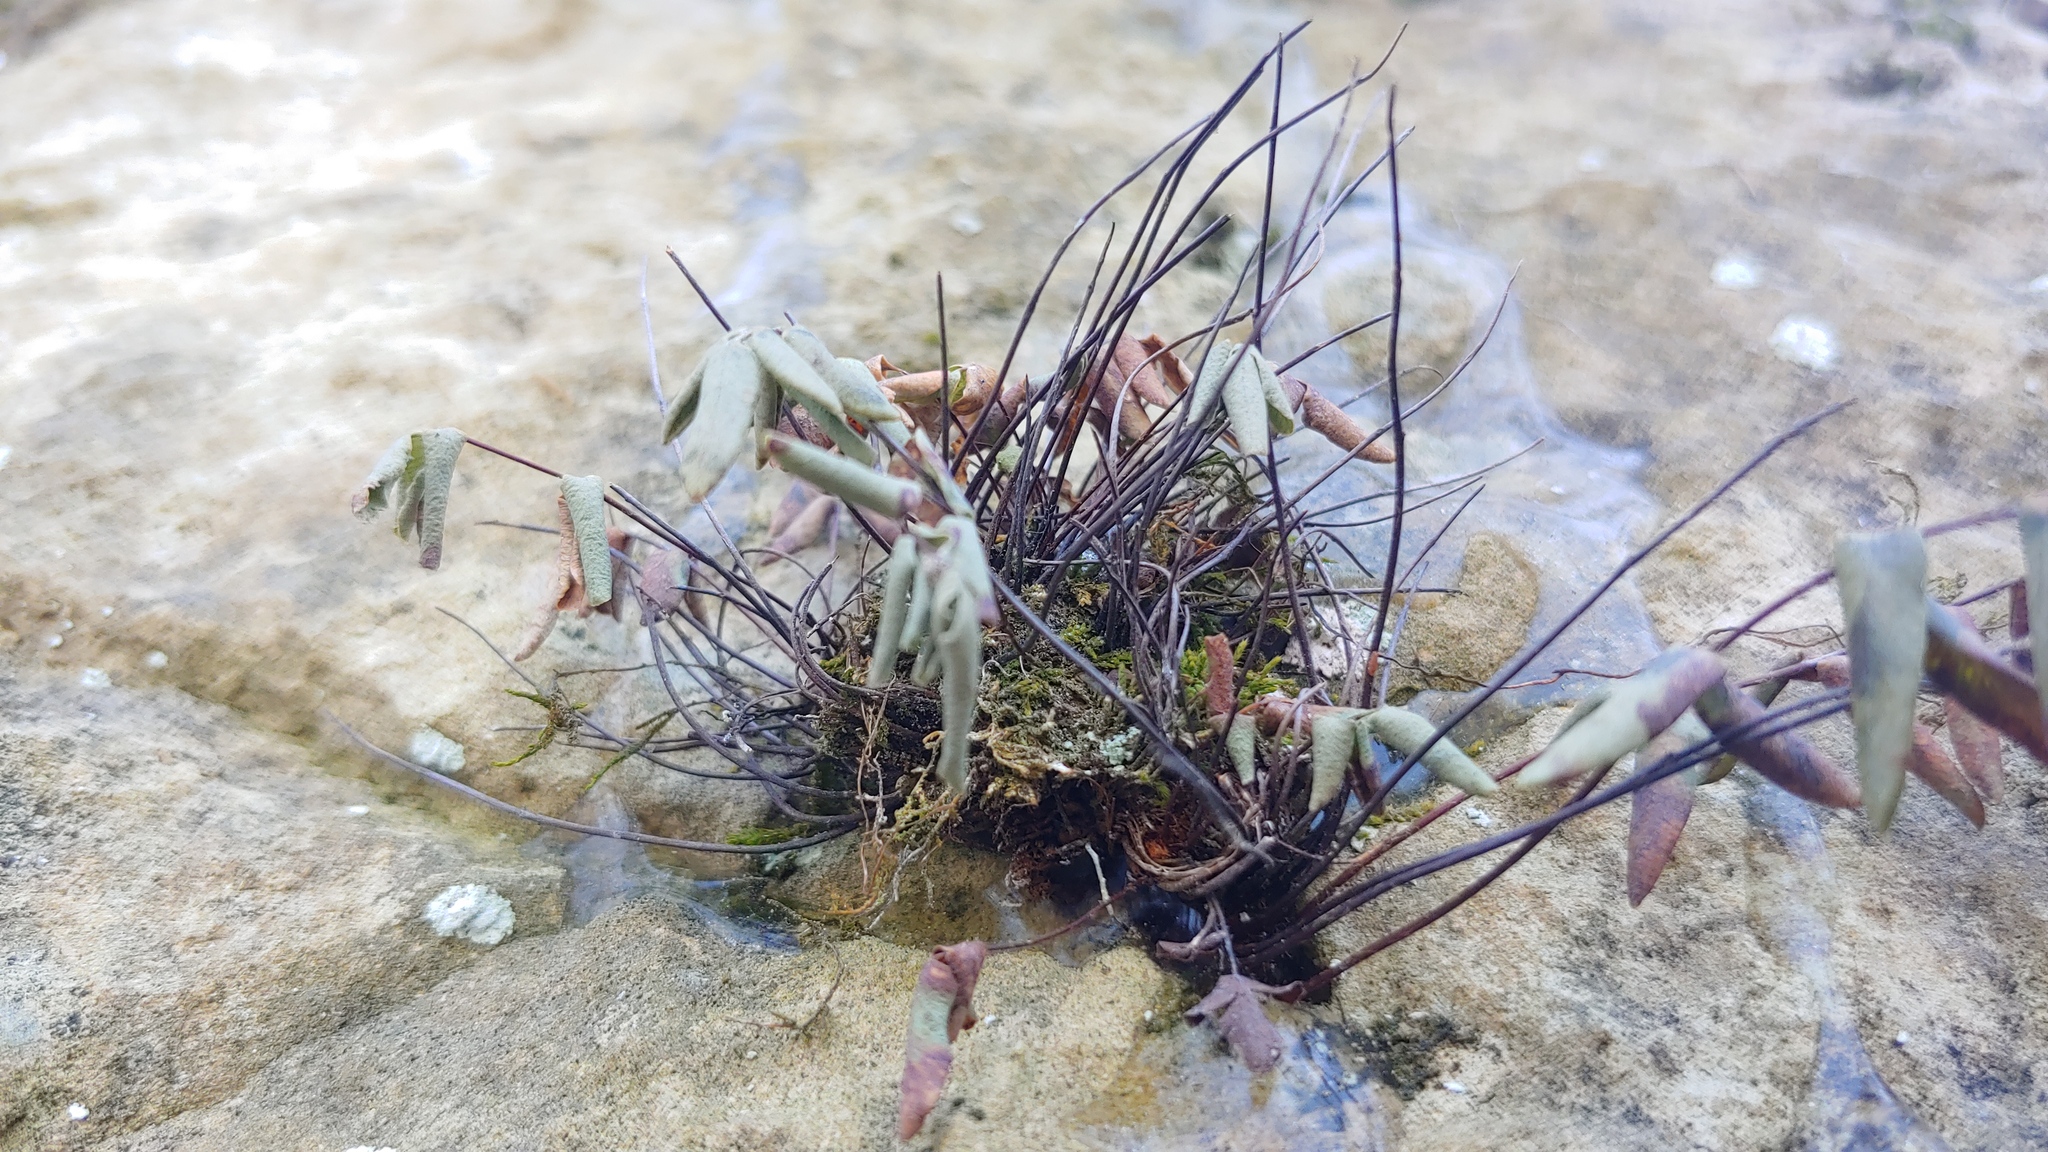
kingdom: Plantae
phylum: Tracheophyta
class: Polypodiopsida
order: Polypodiales
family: Pteridaceae
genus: Pellaea
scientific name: Pellaea glabella
